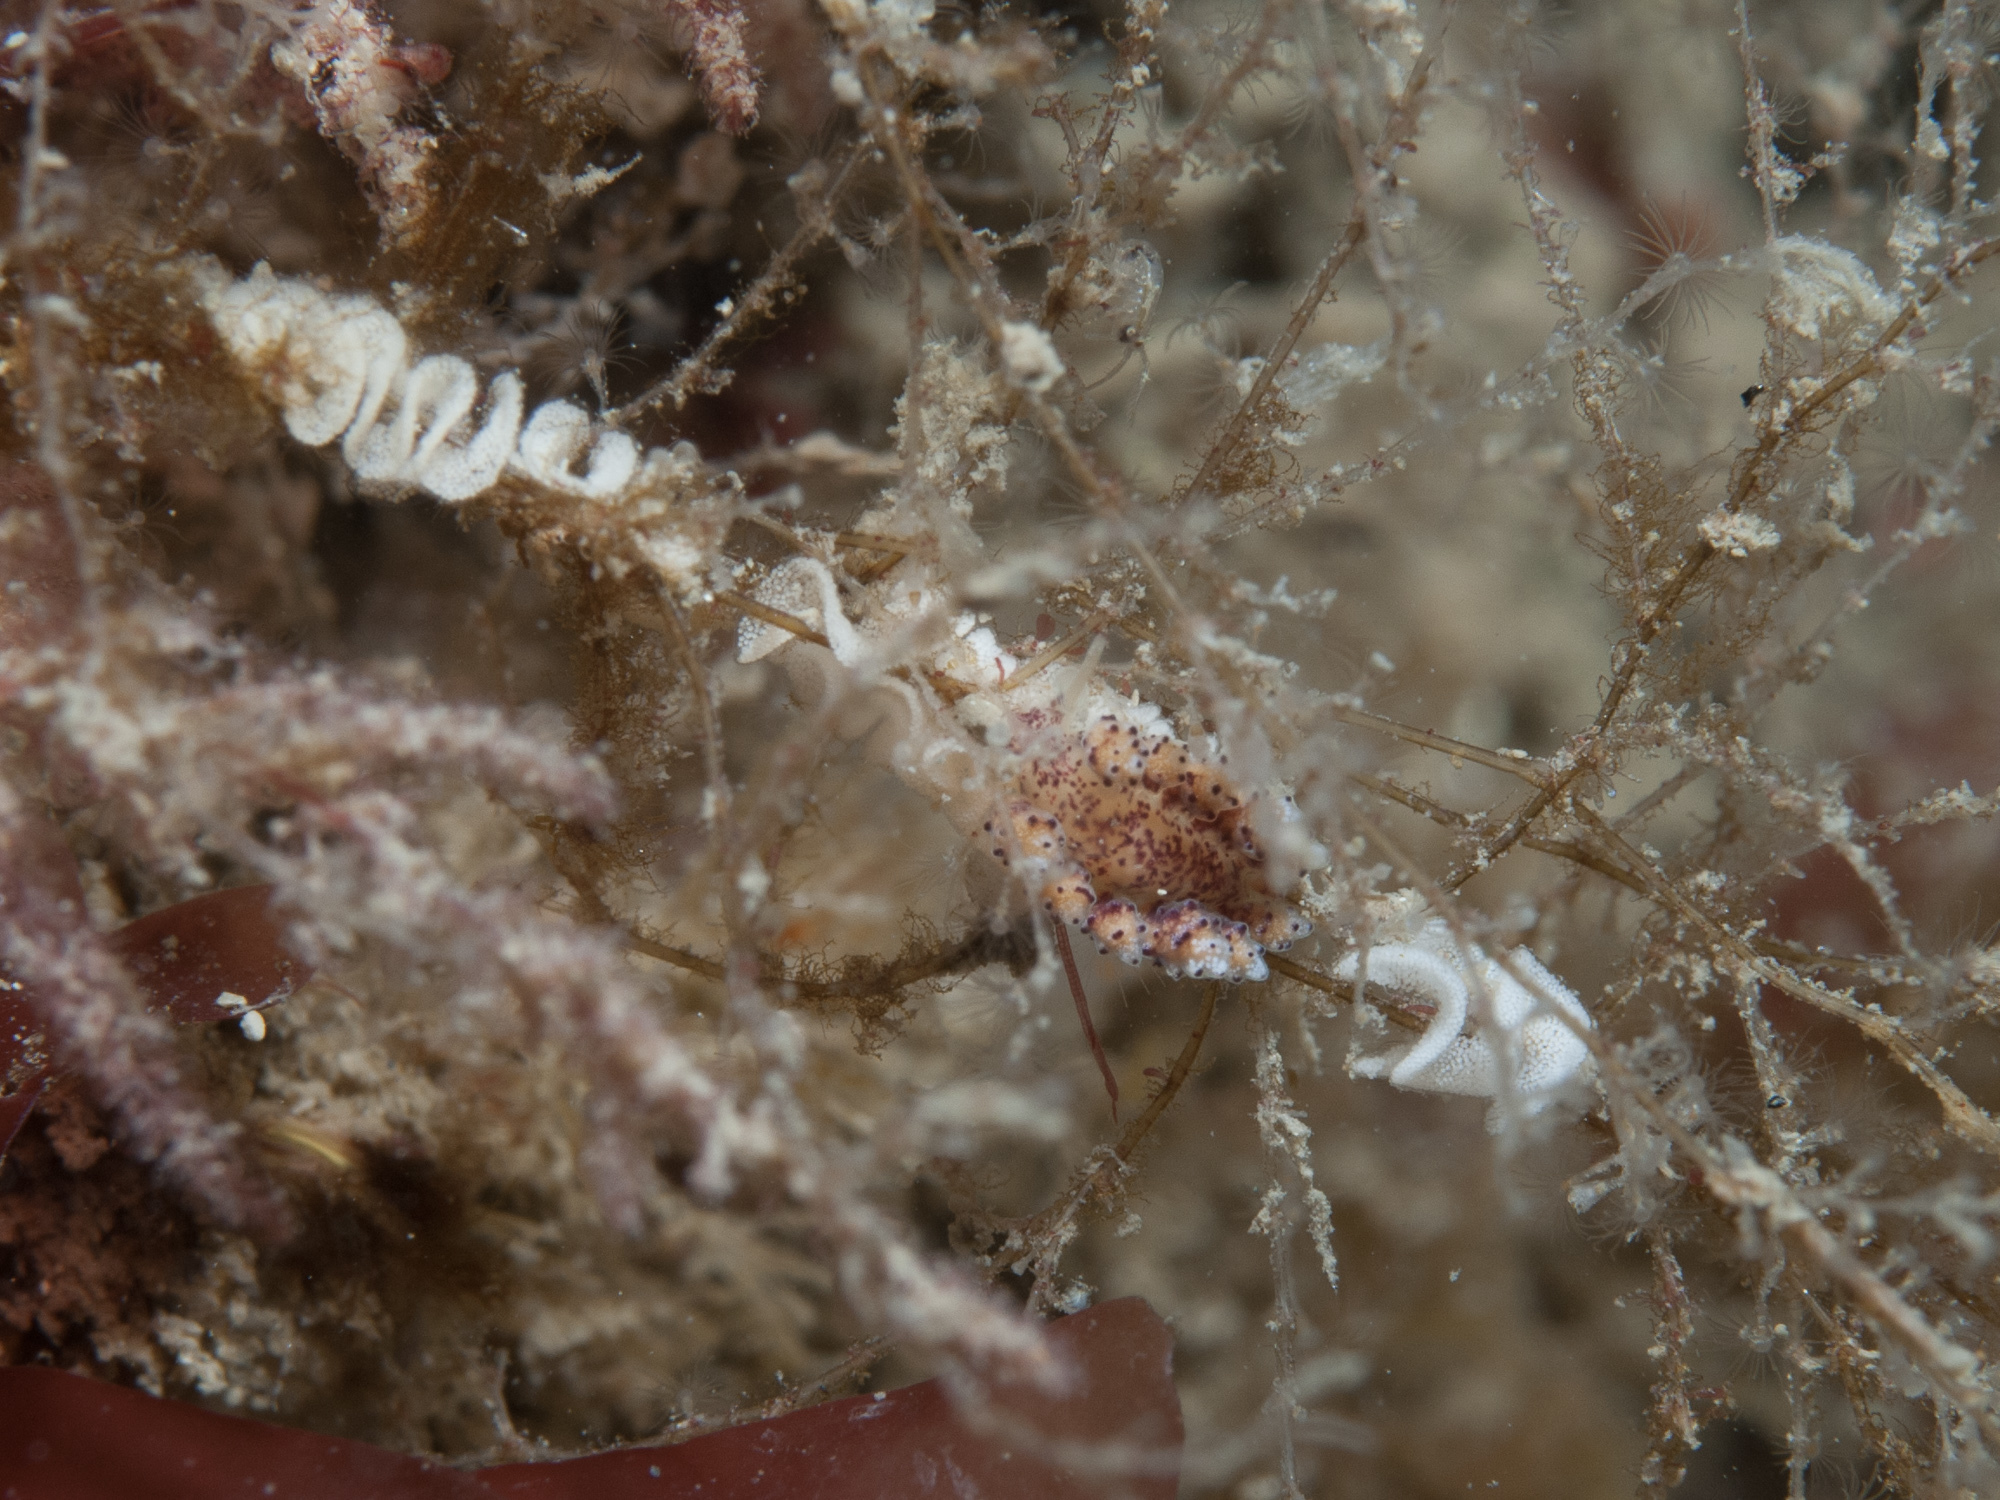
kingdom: Animalia
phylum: Mollusca
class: Gastropoda
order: Nudibranchia
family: Dotidae
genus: Doto
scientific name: Doto coronata
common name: Coronate doto
